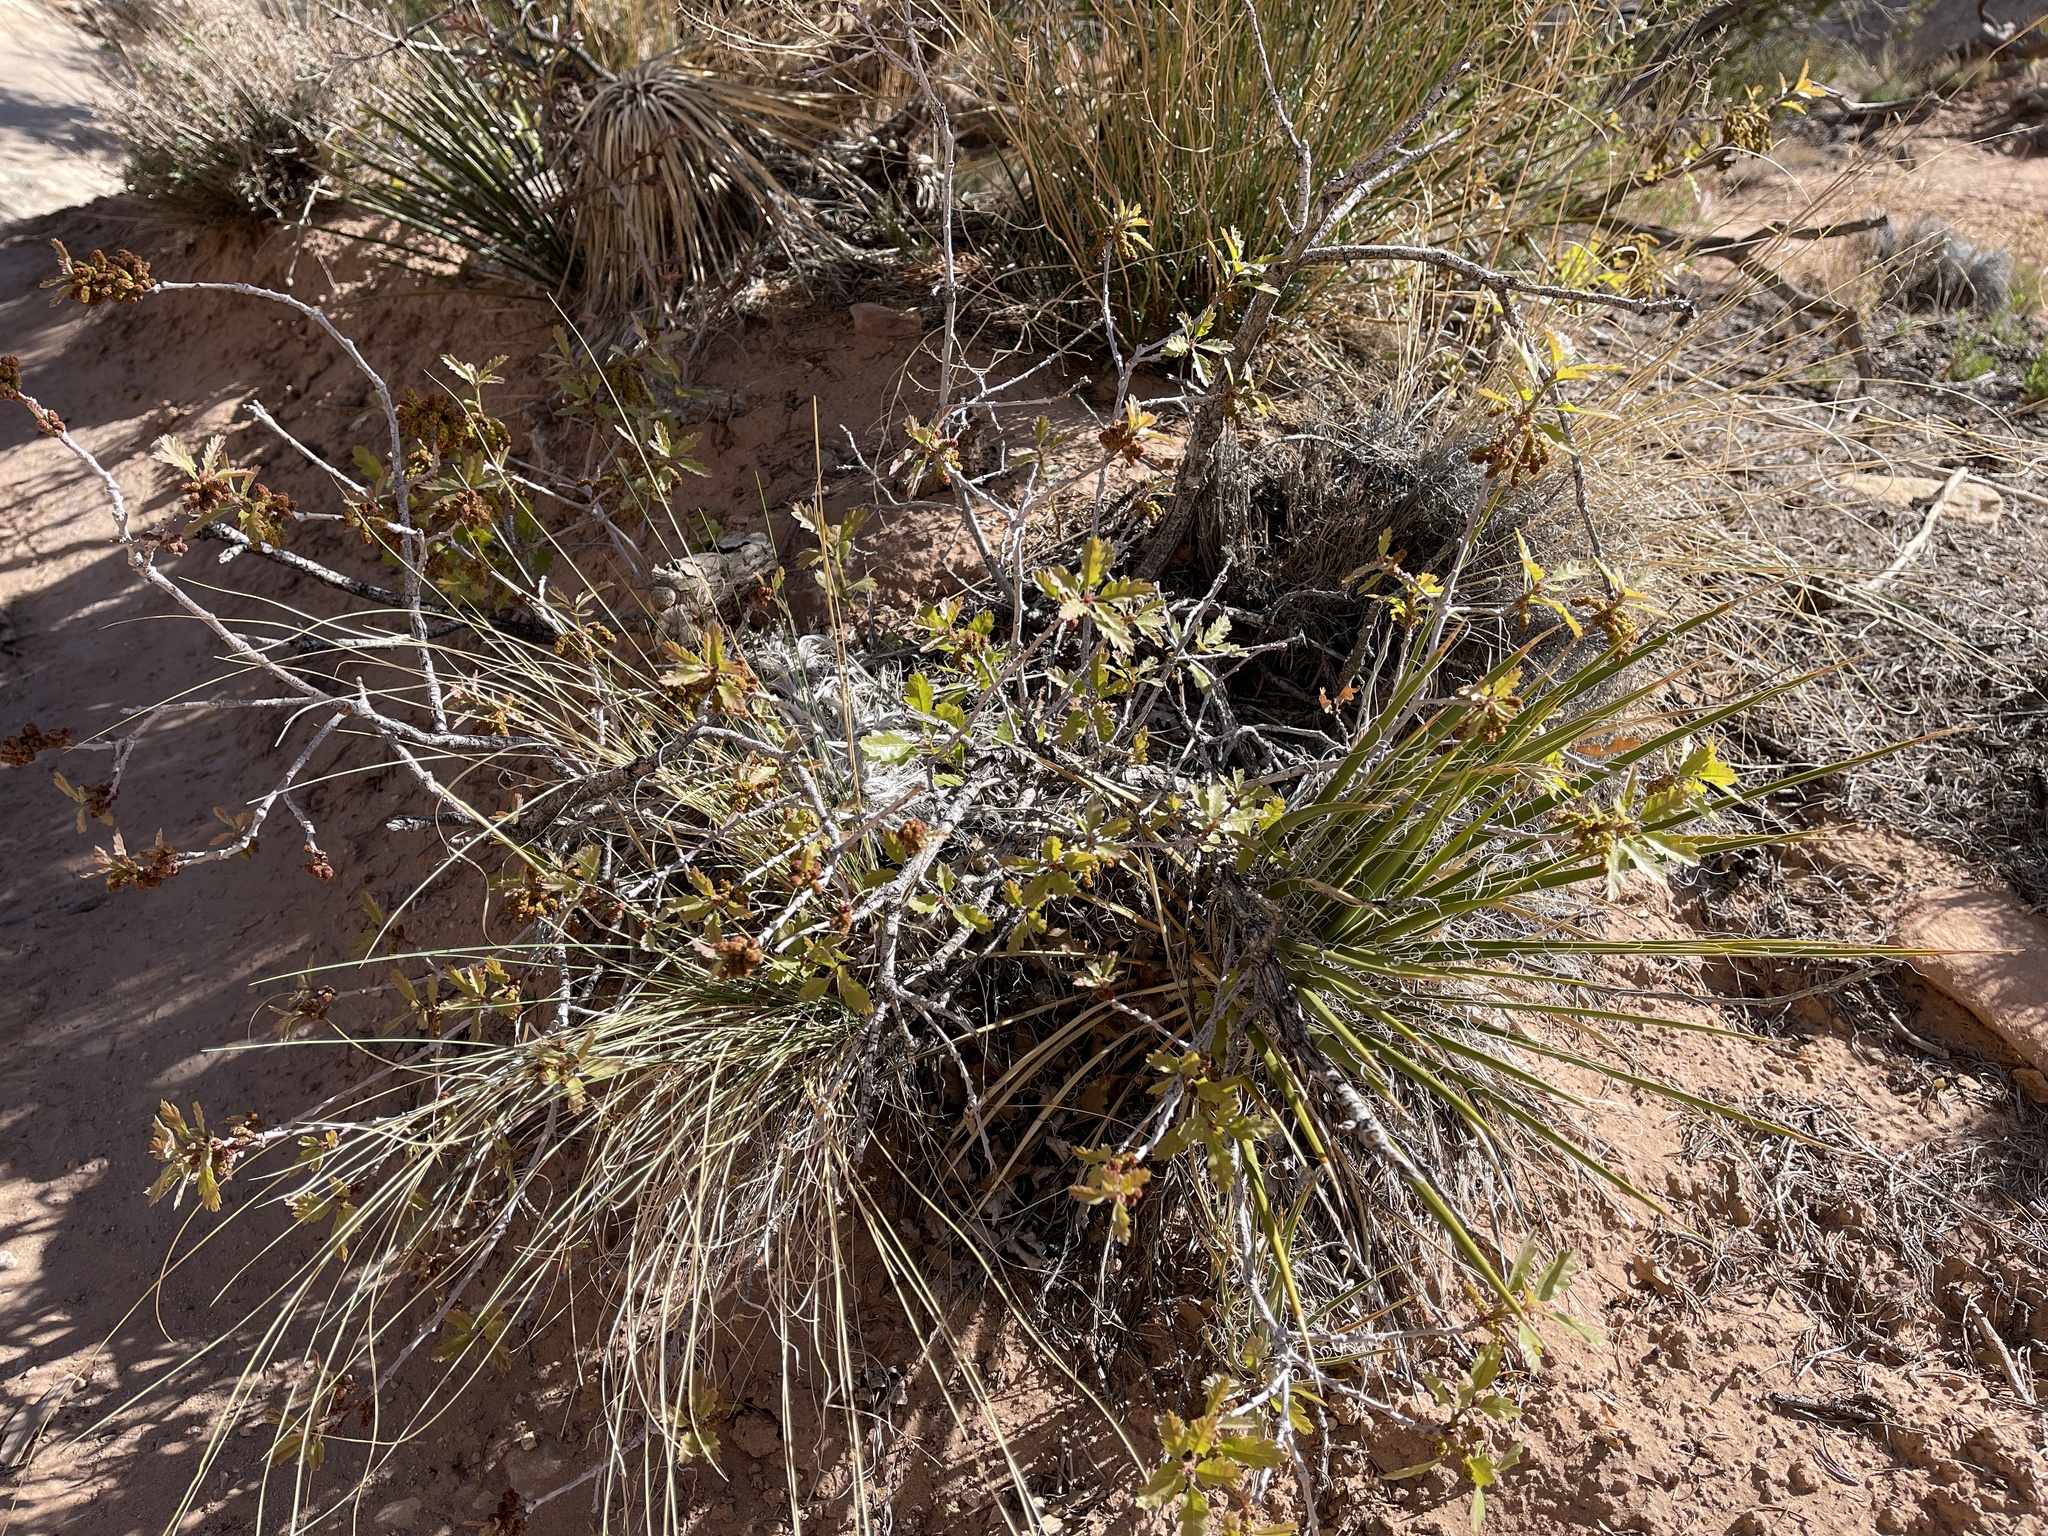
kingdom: Plantae
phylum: Tracheophyta
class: Magnoliopsida
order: Fagales
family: Fagaceae
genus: Quercus
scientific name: Quercus welshii
